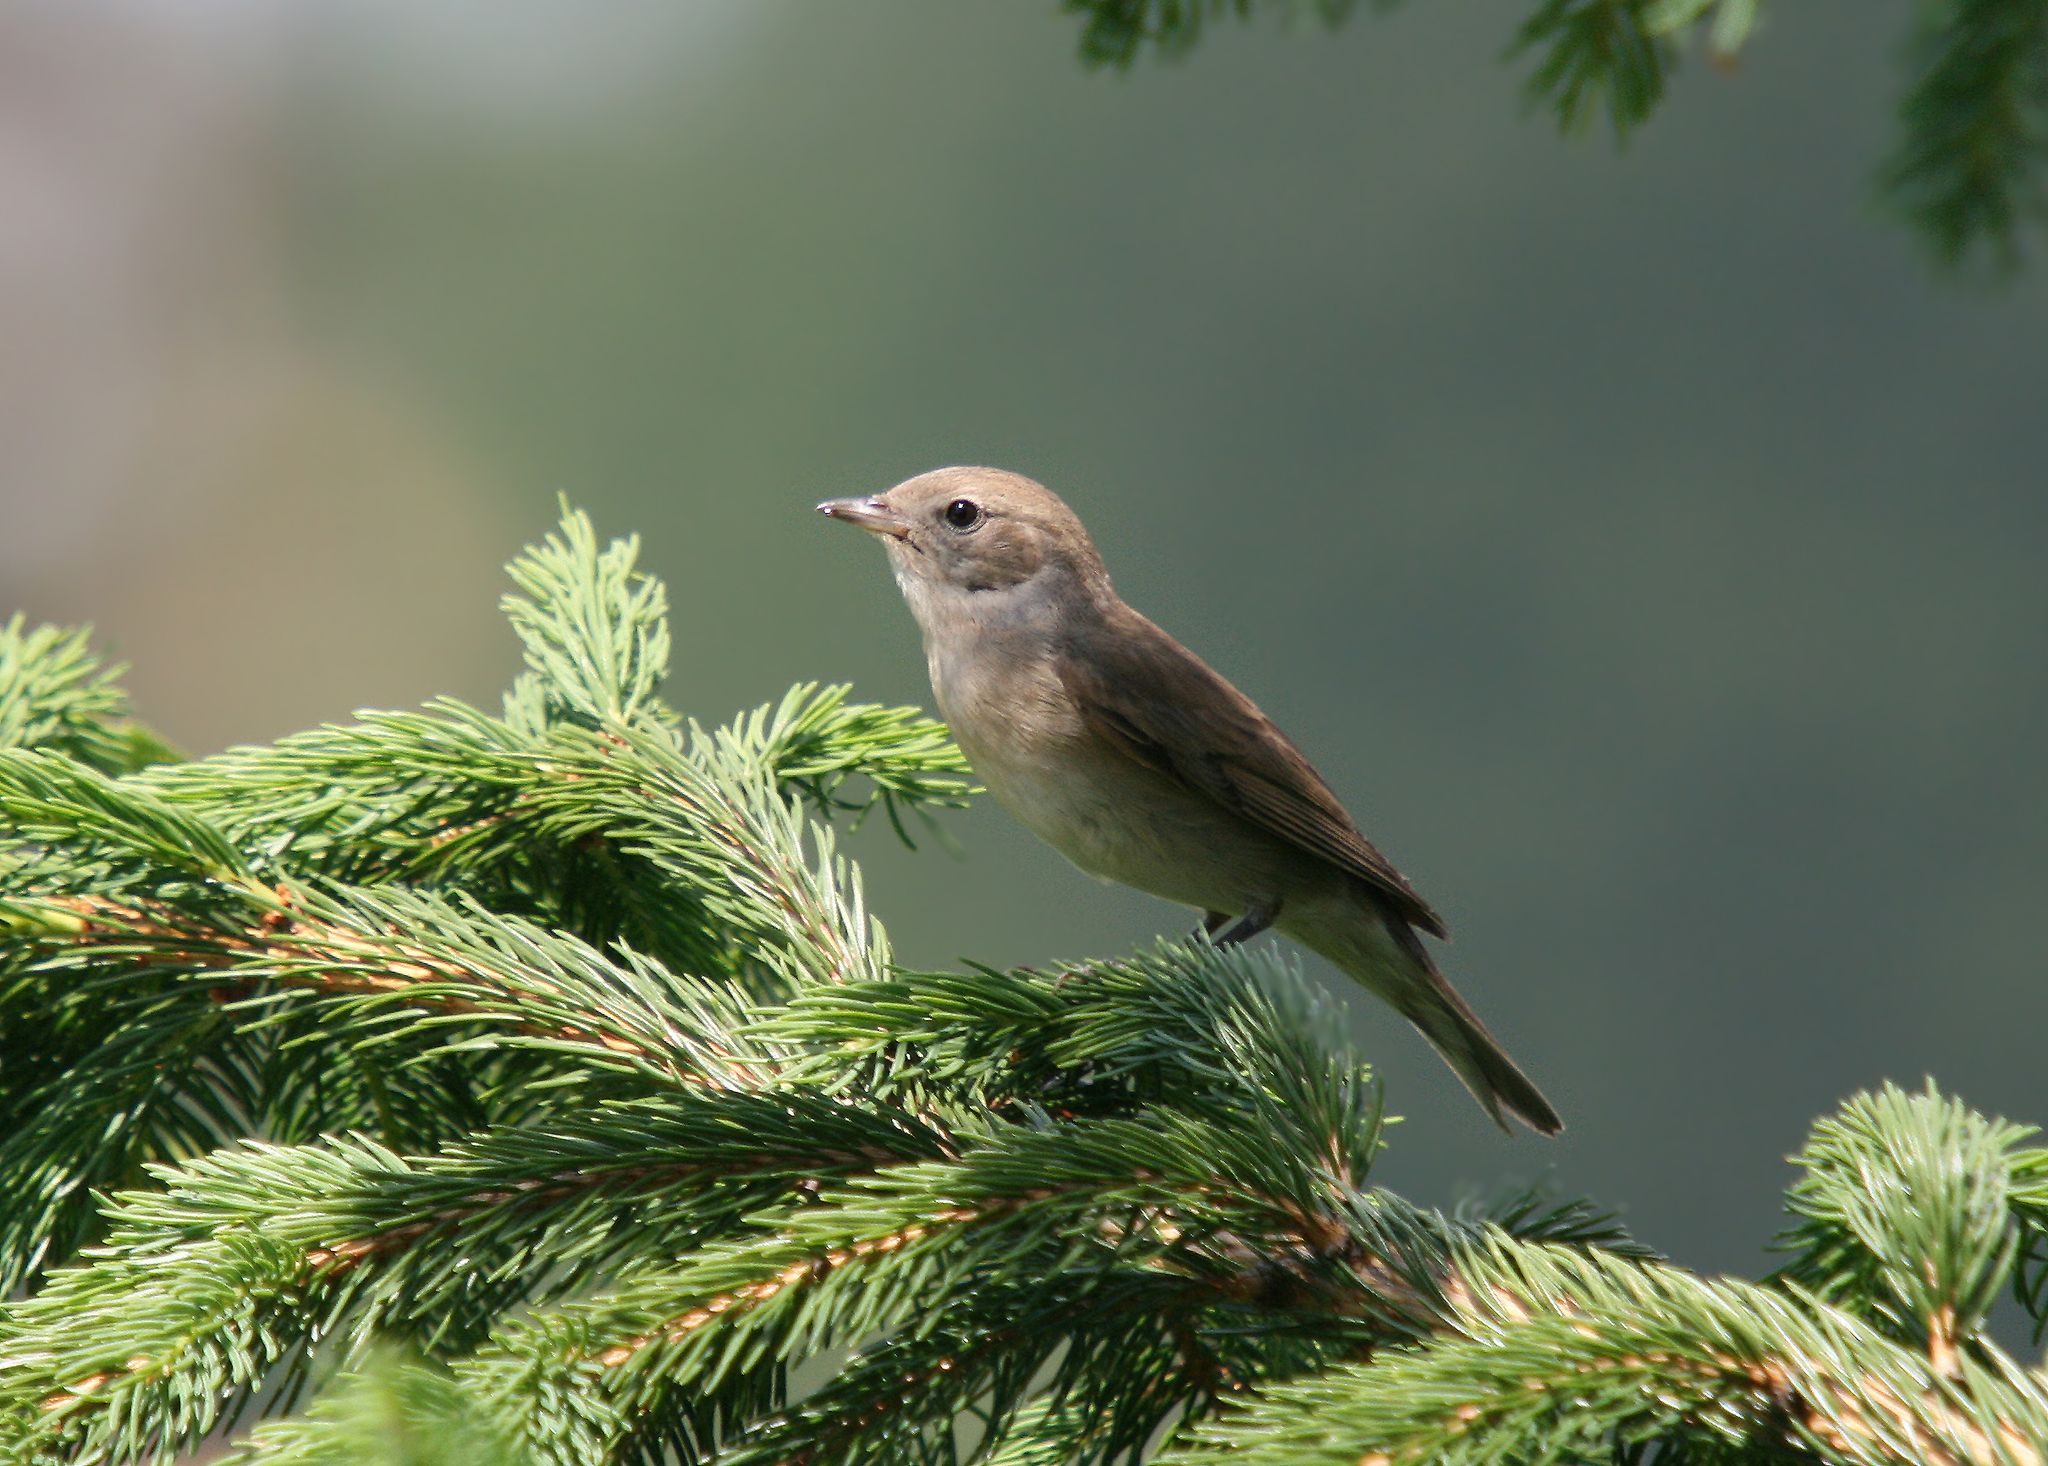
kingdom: Animalia
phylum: Chordata
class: Aves
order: Passeriformes
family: Sylviidae
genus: Sylvia
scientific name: Sylvia borin
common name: Garden warbler
